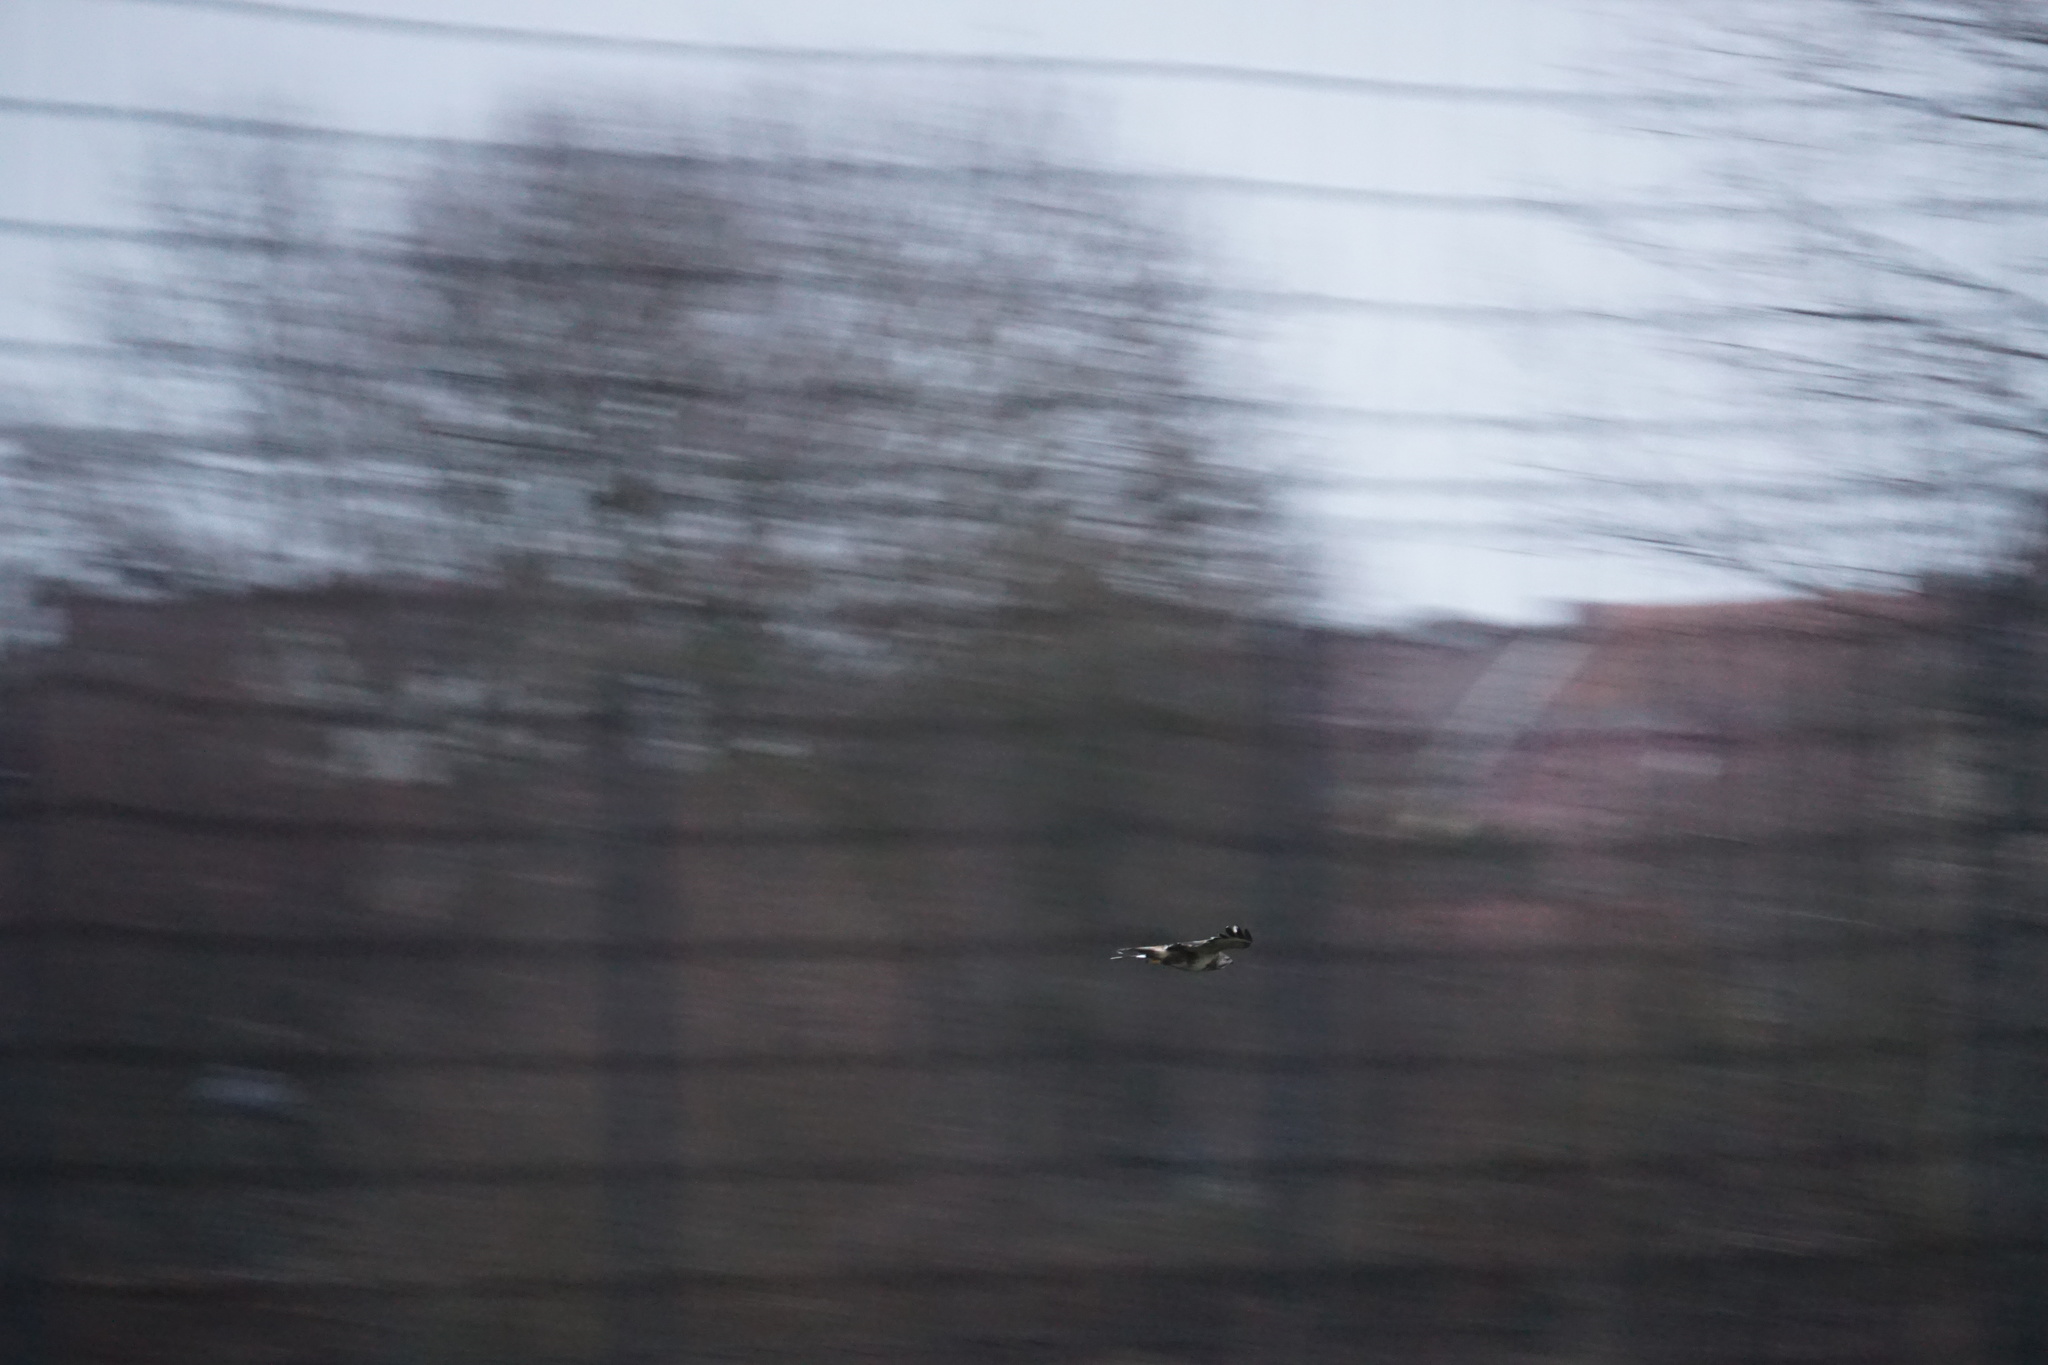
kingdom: Animalia
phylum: Chordata
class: Aves
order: Accipitriformes
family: Accipitridae
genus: Buteo
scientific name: Buteo buteo
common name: Common buzzard
